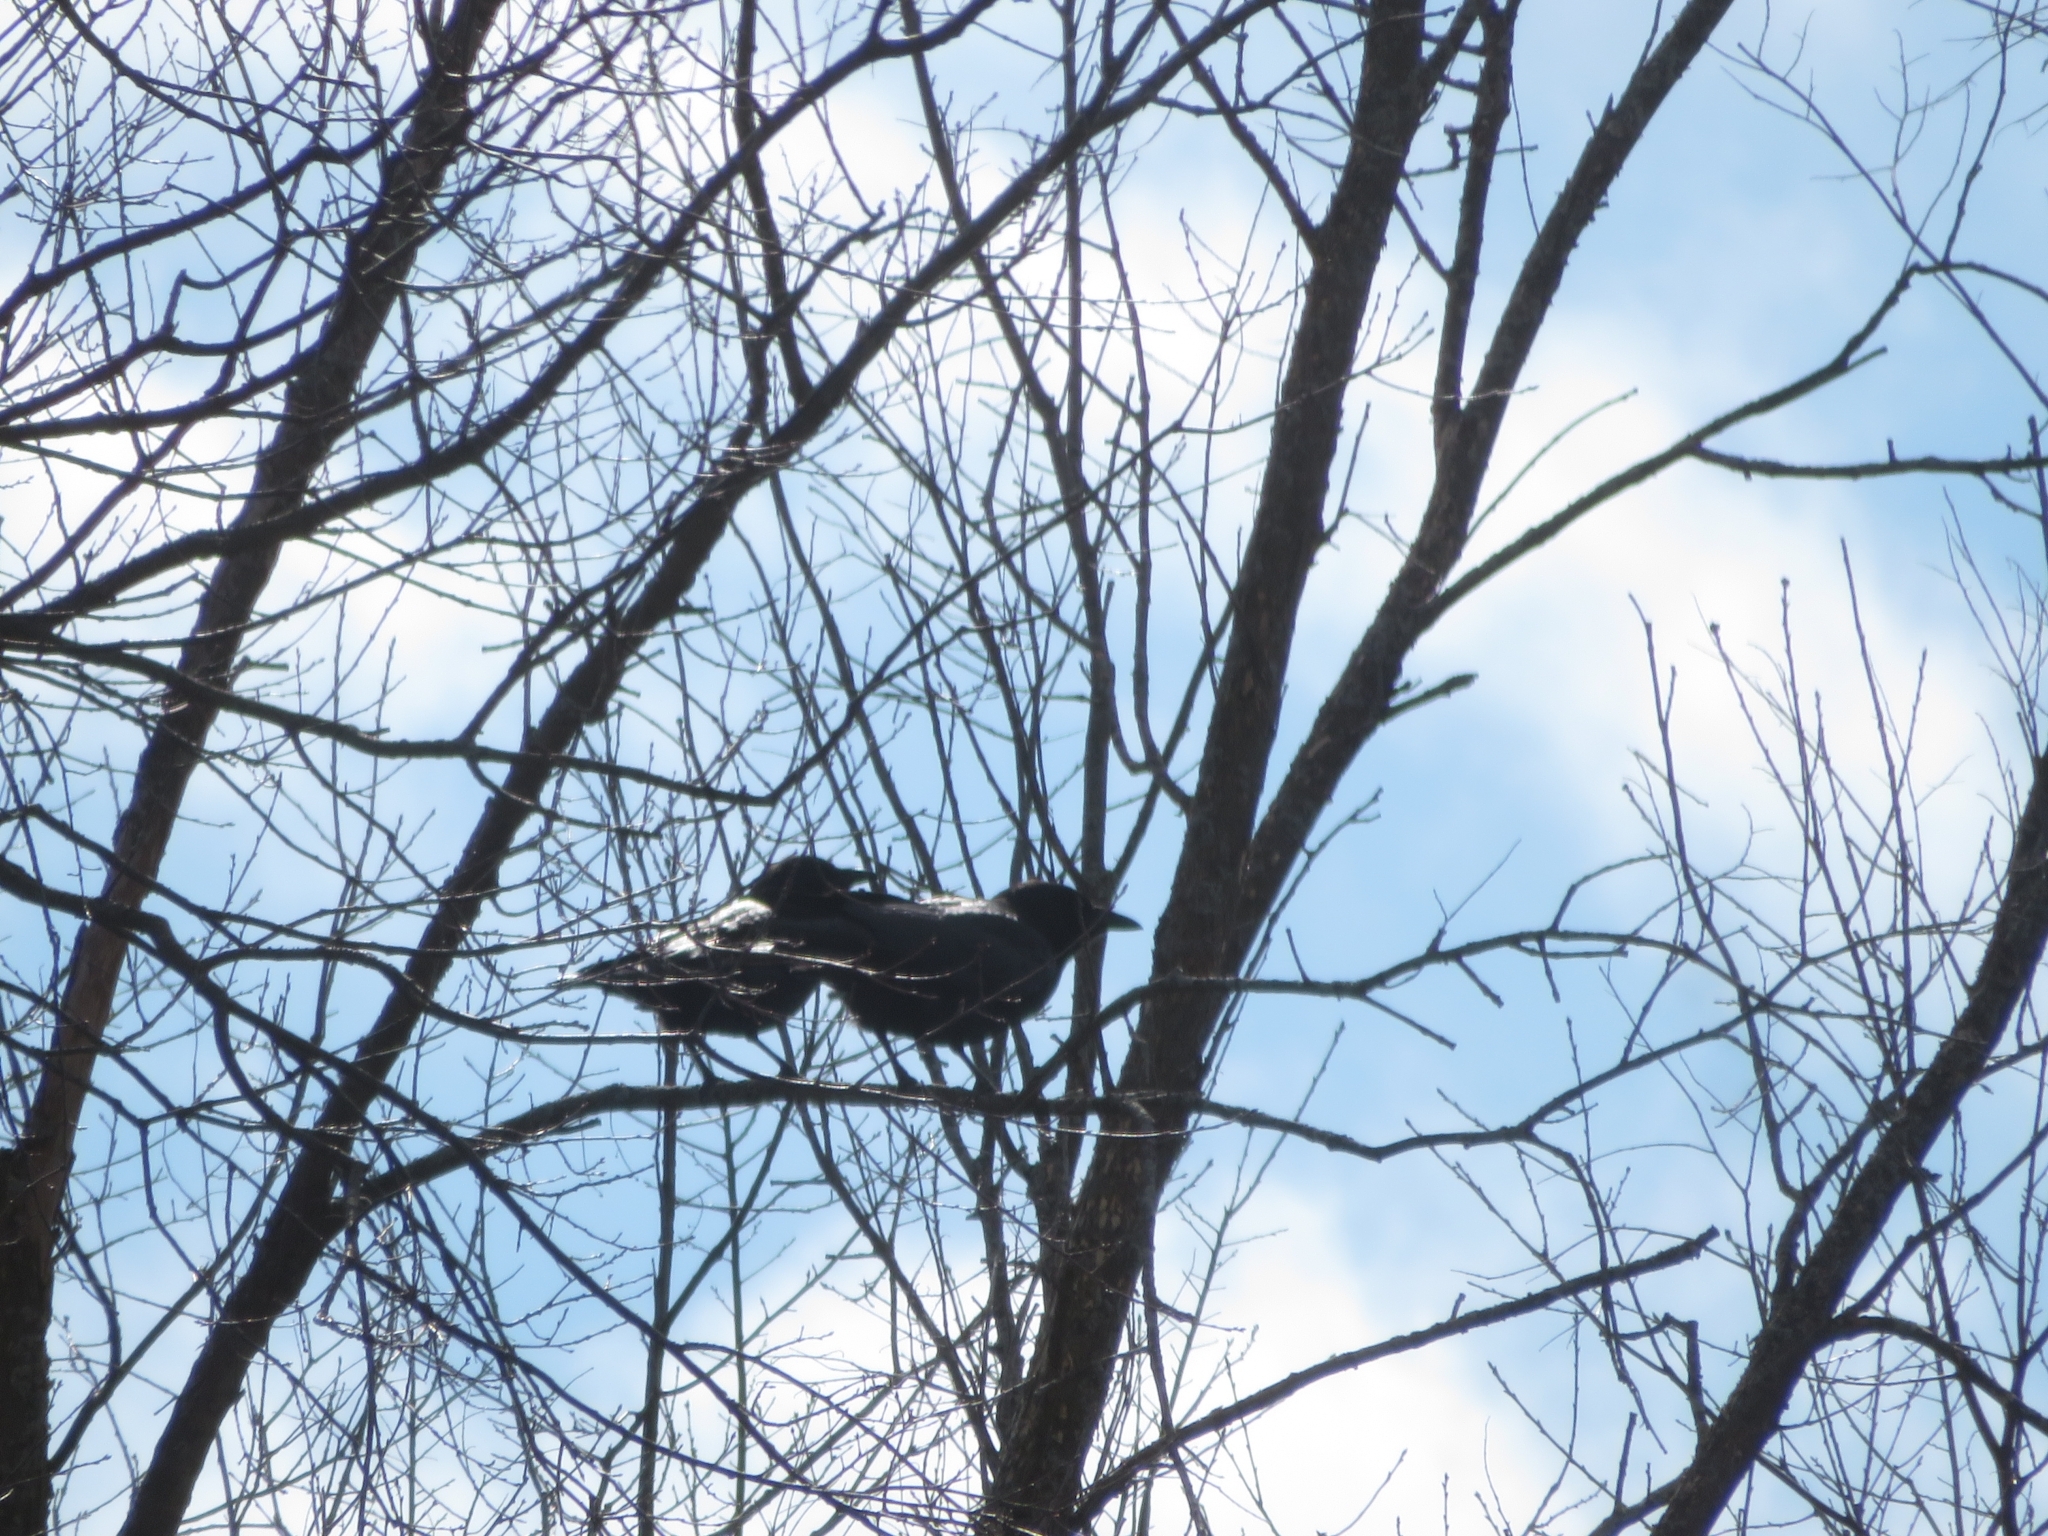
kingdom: Animalia
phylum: Chordata
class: Aves
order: Passeriformes
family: Corvidae
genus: Corvus
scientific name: Corvus brachyrhynchos
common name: American crow
